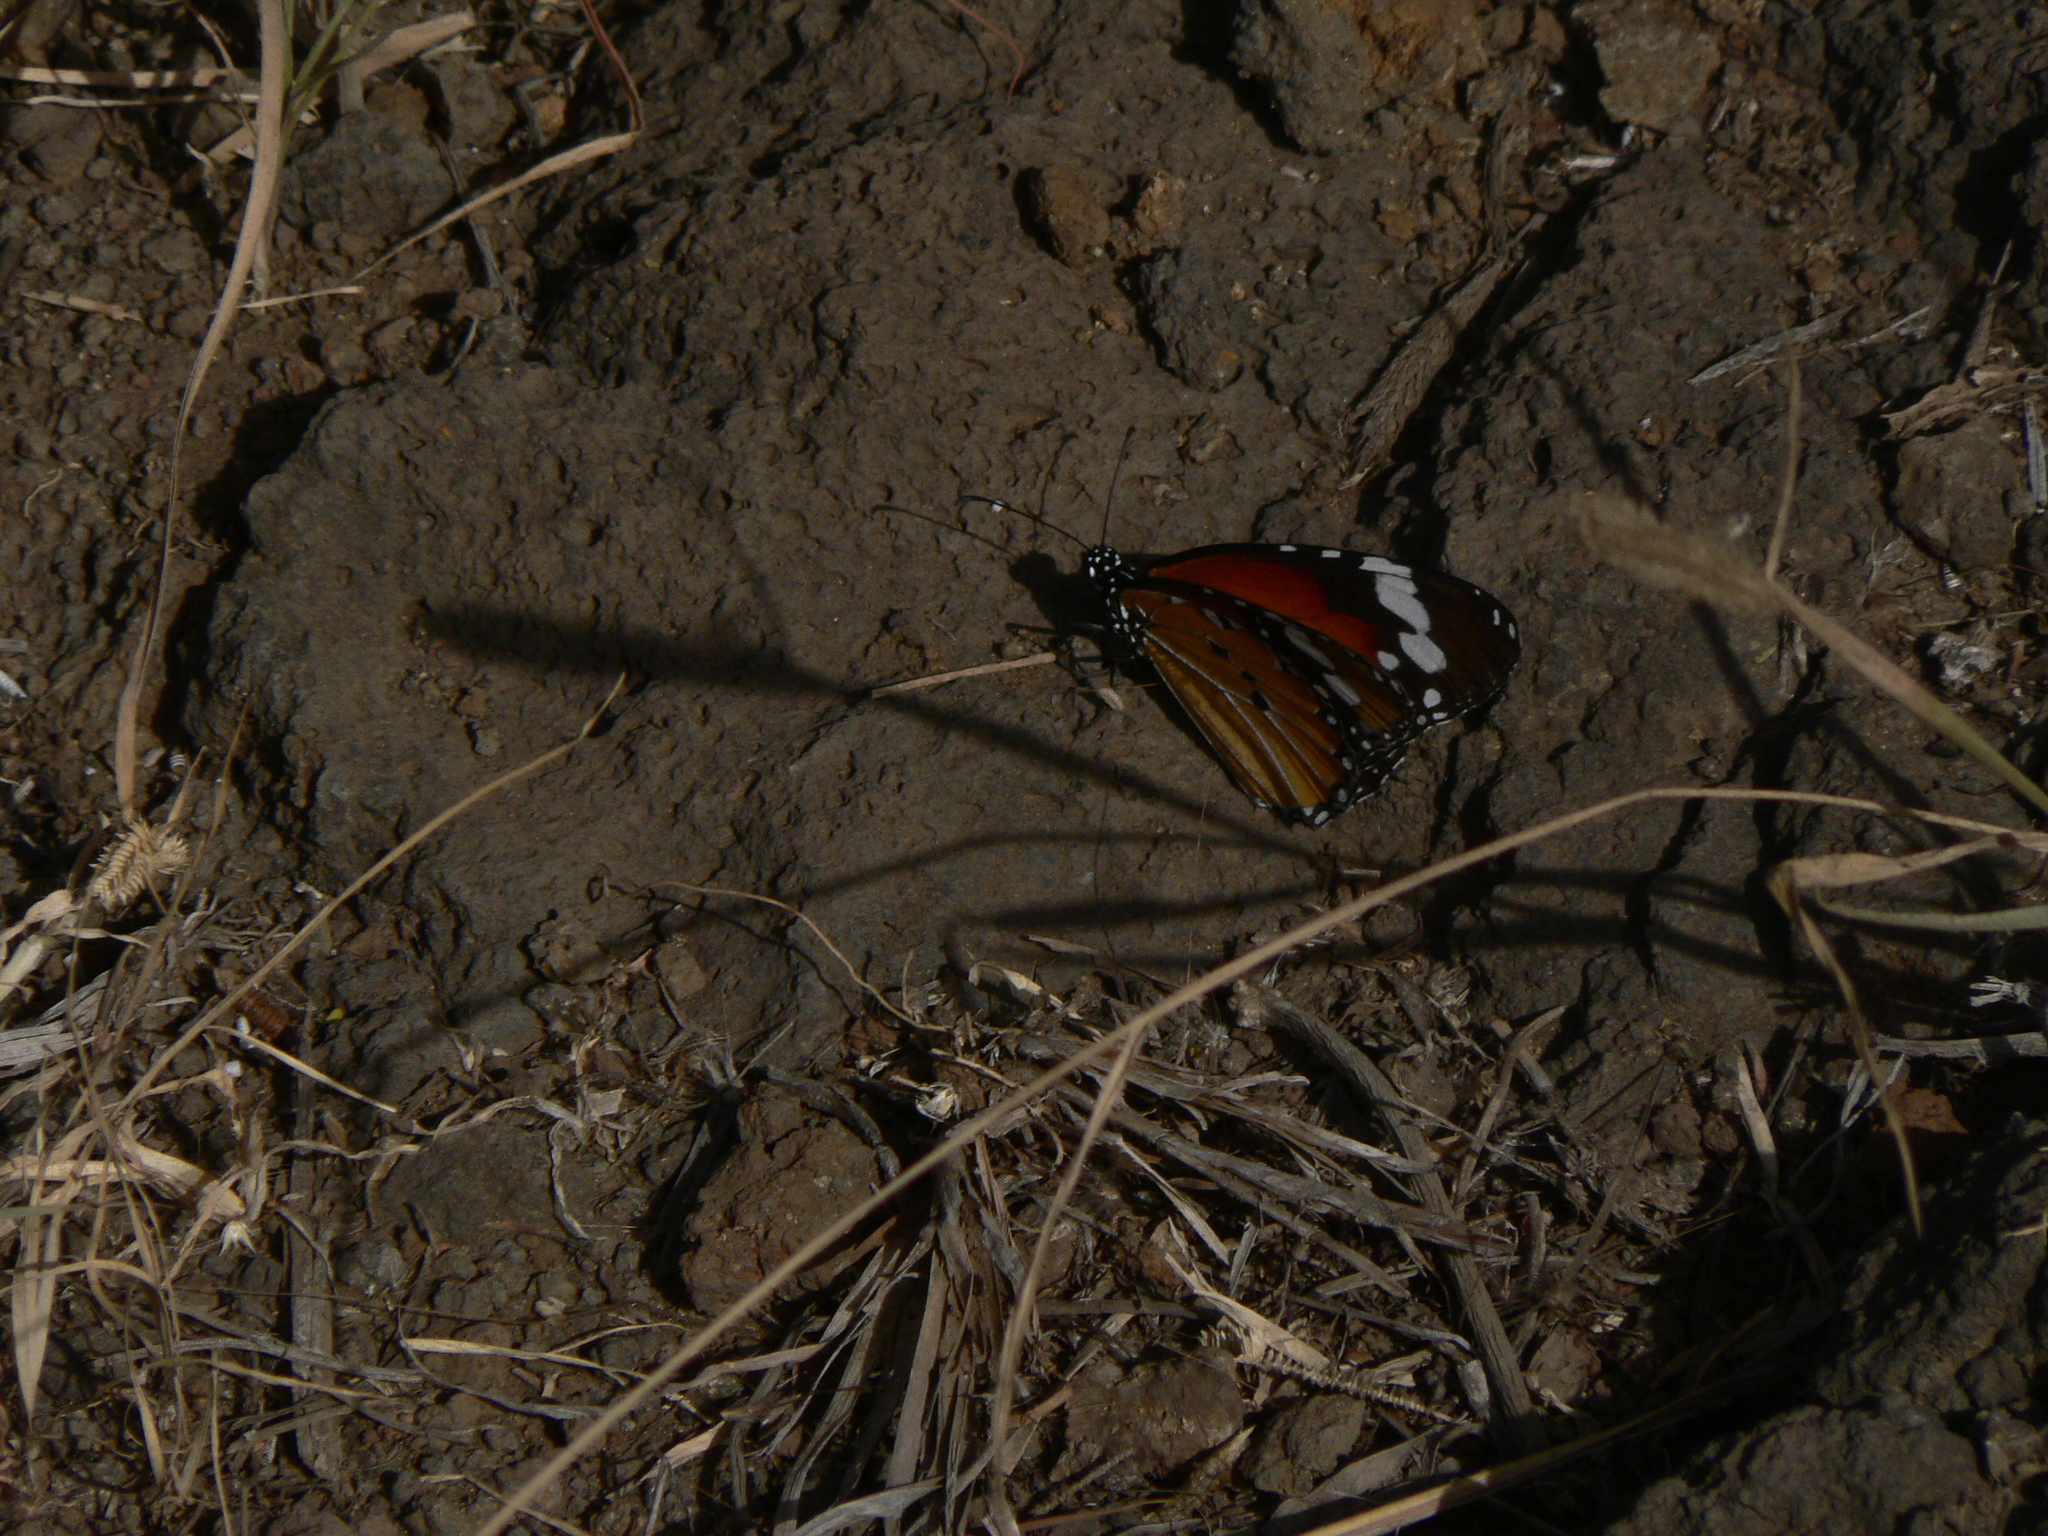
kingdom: Animalia
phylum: Arthropoda
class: Insecta
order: Lepidoptera
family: Nymphalidae
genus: Danaus
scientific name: Danaus chrysippus
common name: Plain tiger
